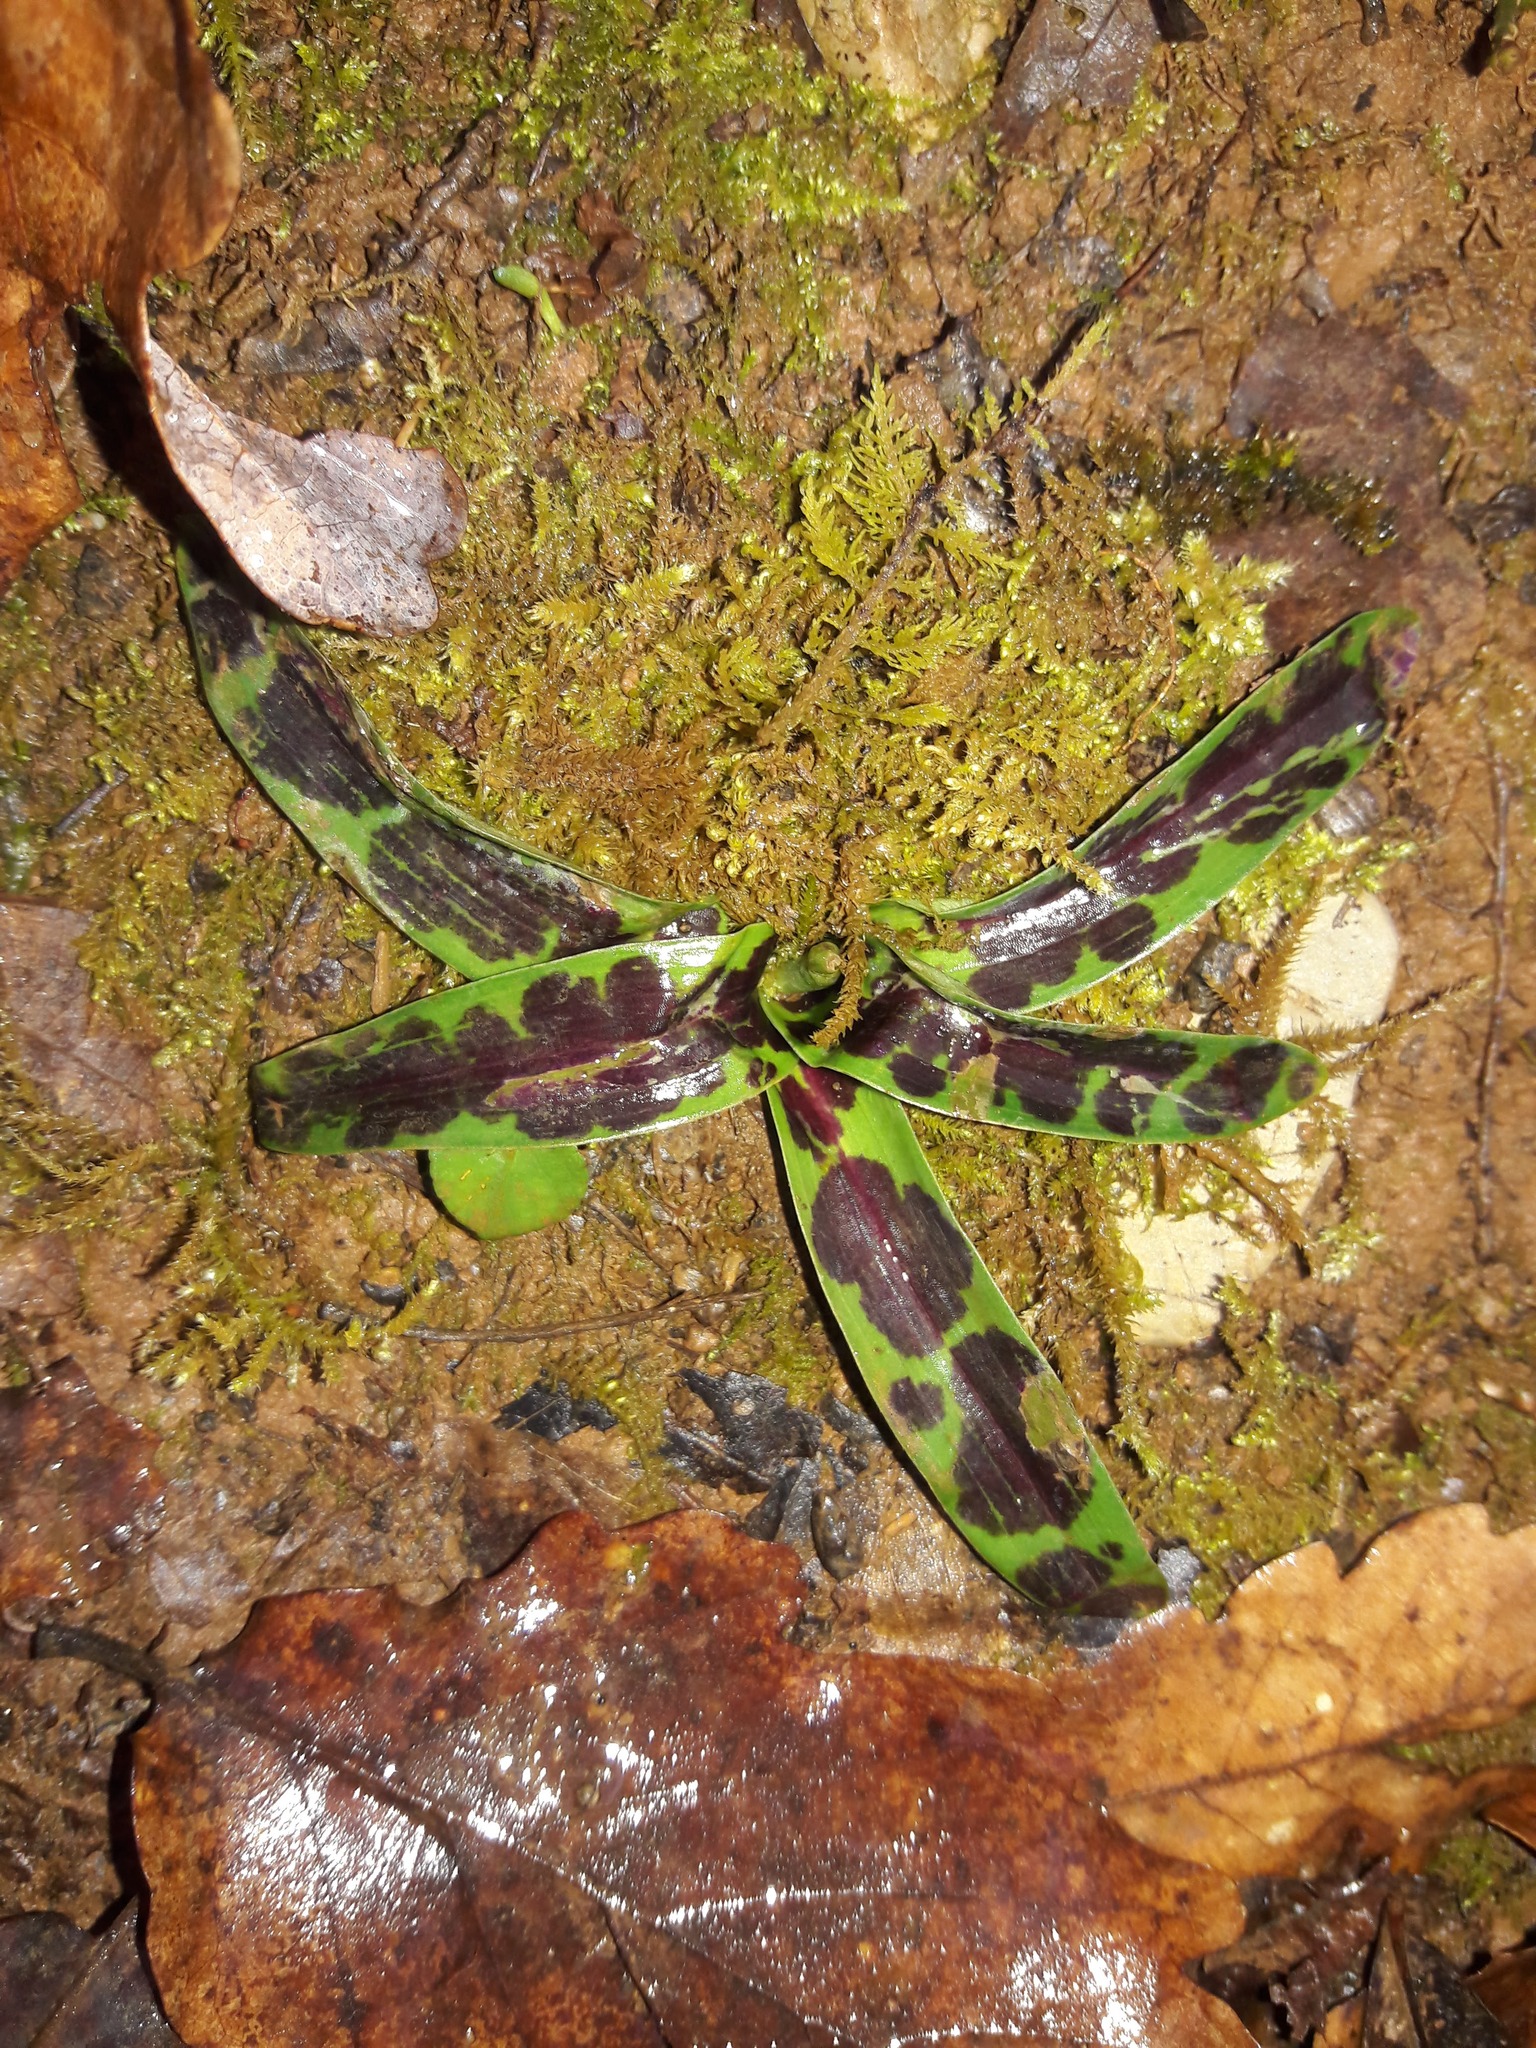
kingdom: Plantae
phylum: Tracheophyta
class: Liliopsida
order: Asparagales
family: Orchidaceae
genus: Orchis
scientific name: Orchis mascula
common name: Early-purple orchid
